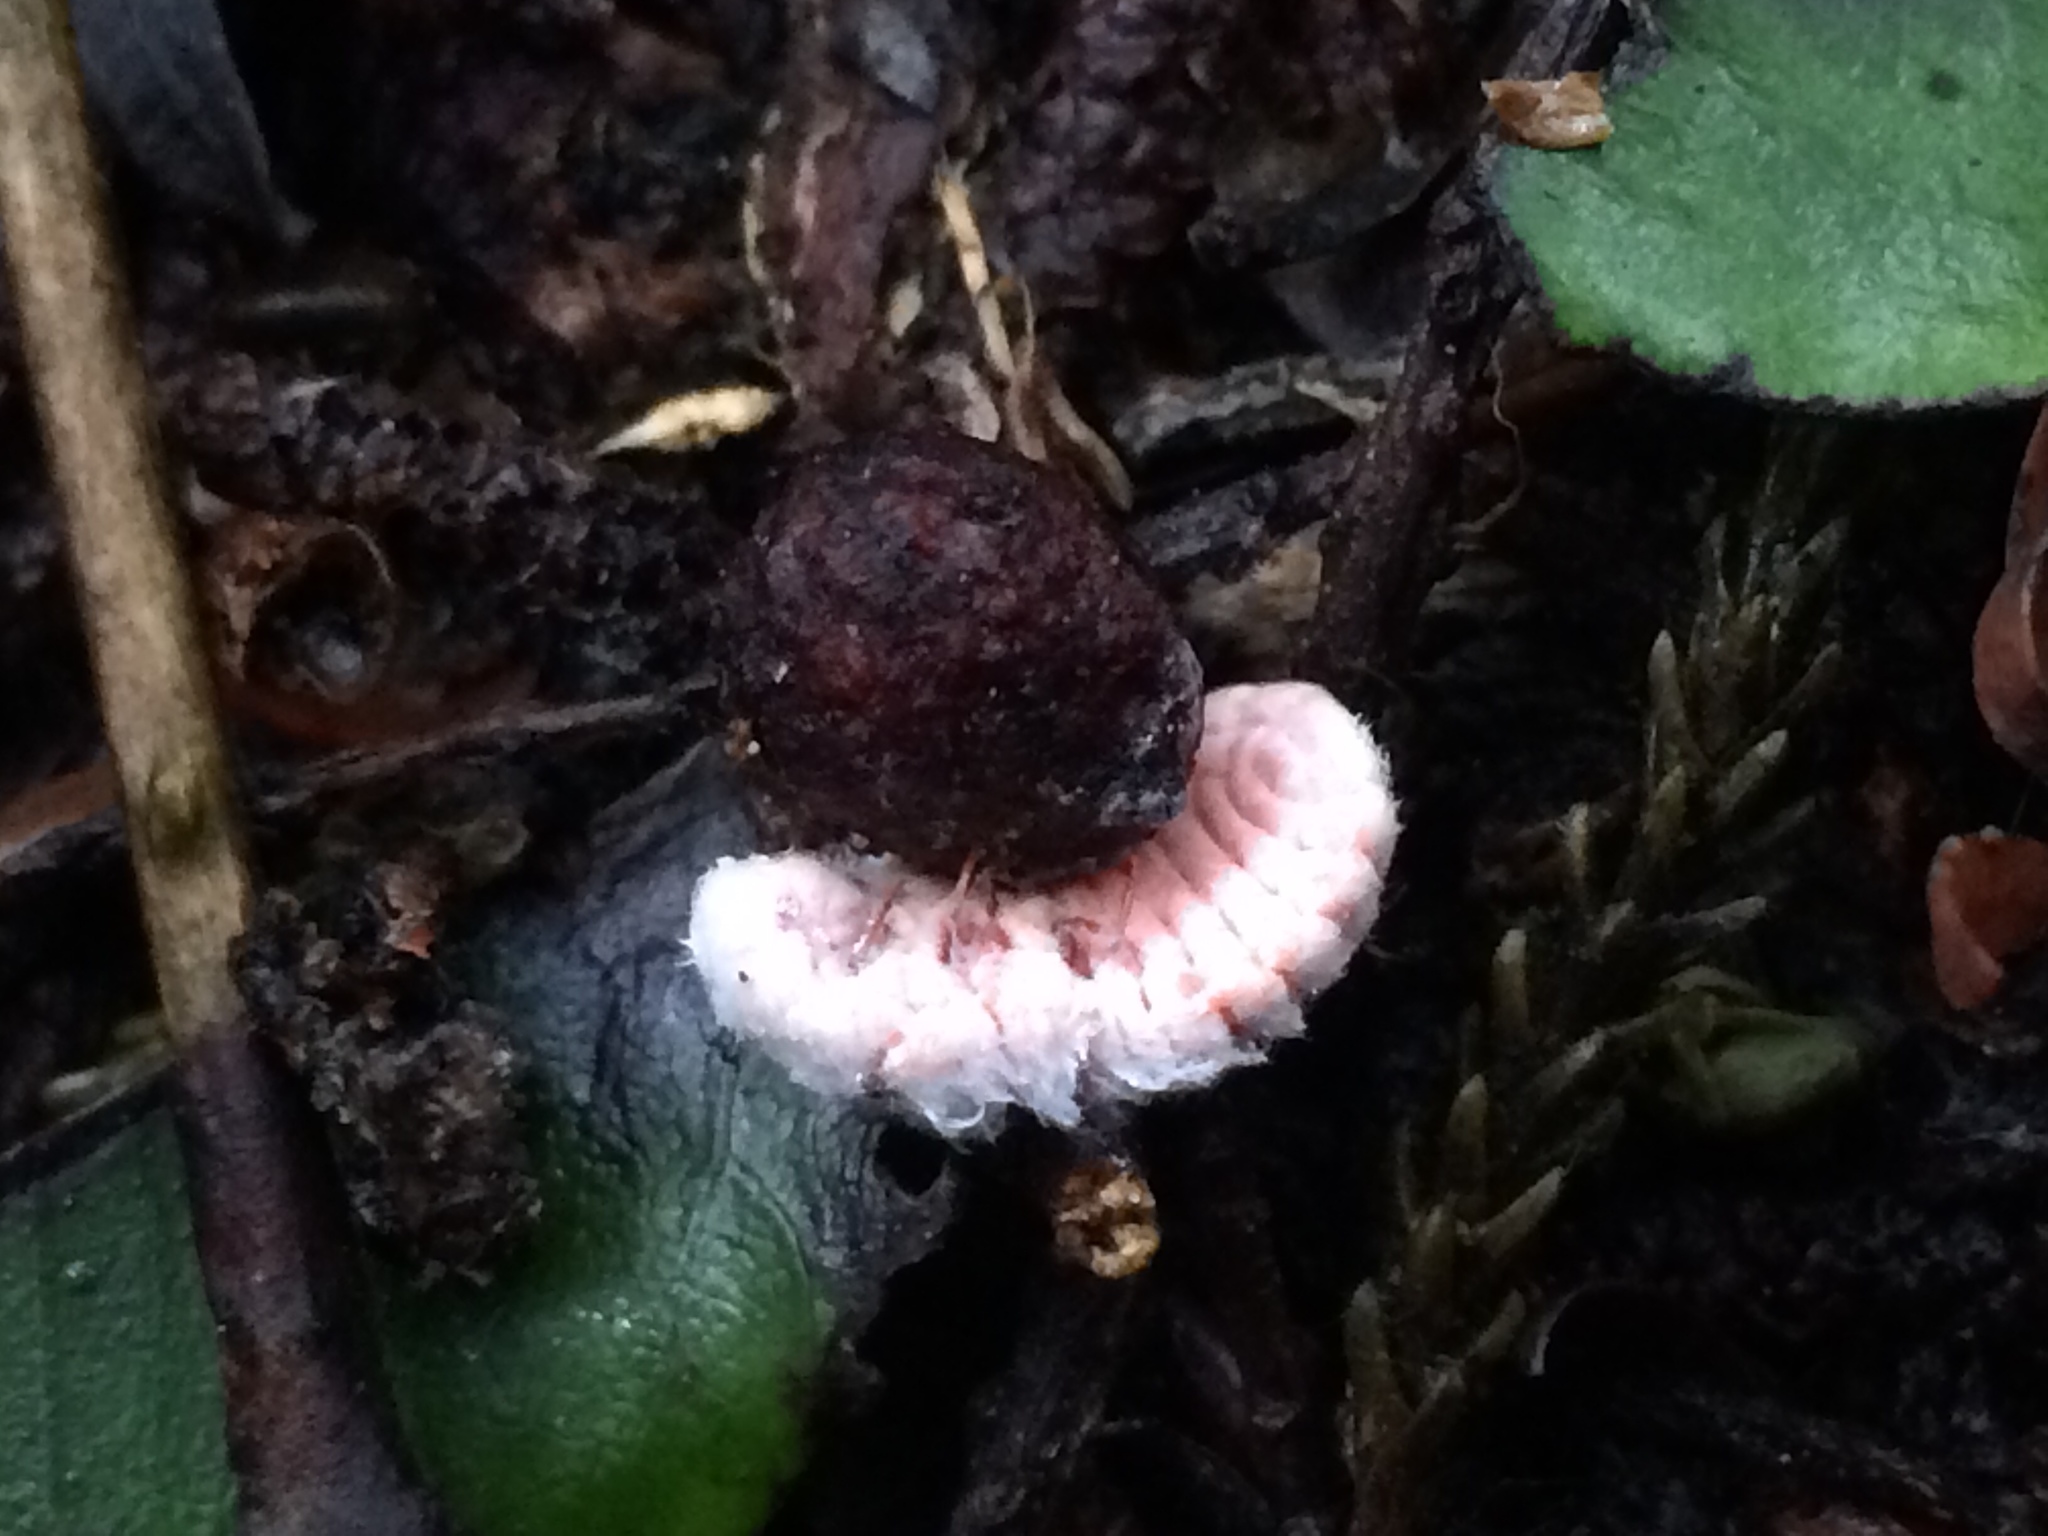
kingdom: Animalia
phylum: Arthropoda
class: Insecta
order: Hemiptera
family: Margarodidae
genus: Coelostomidia
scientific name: Coelostomidia zealandica
